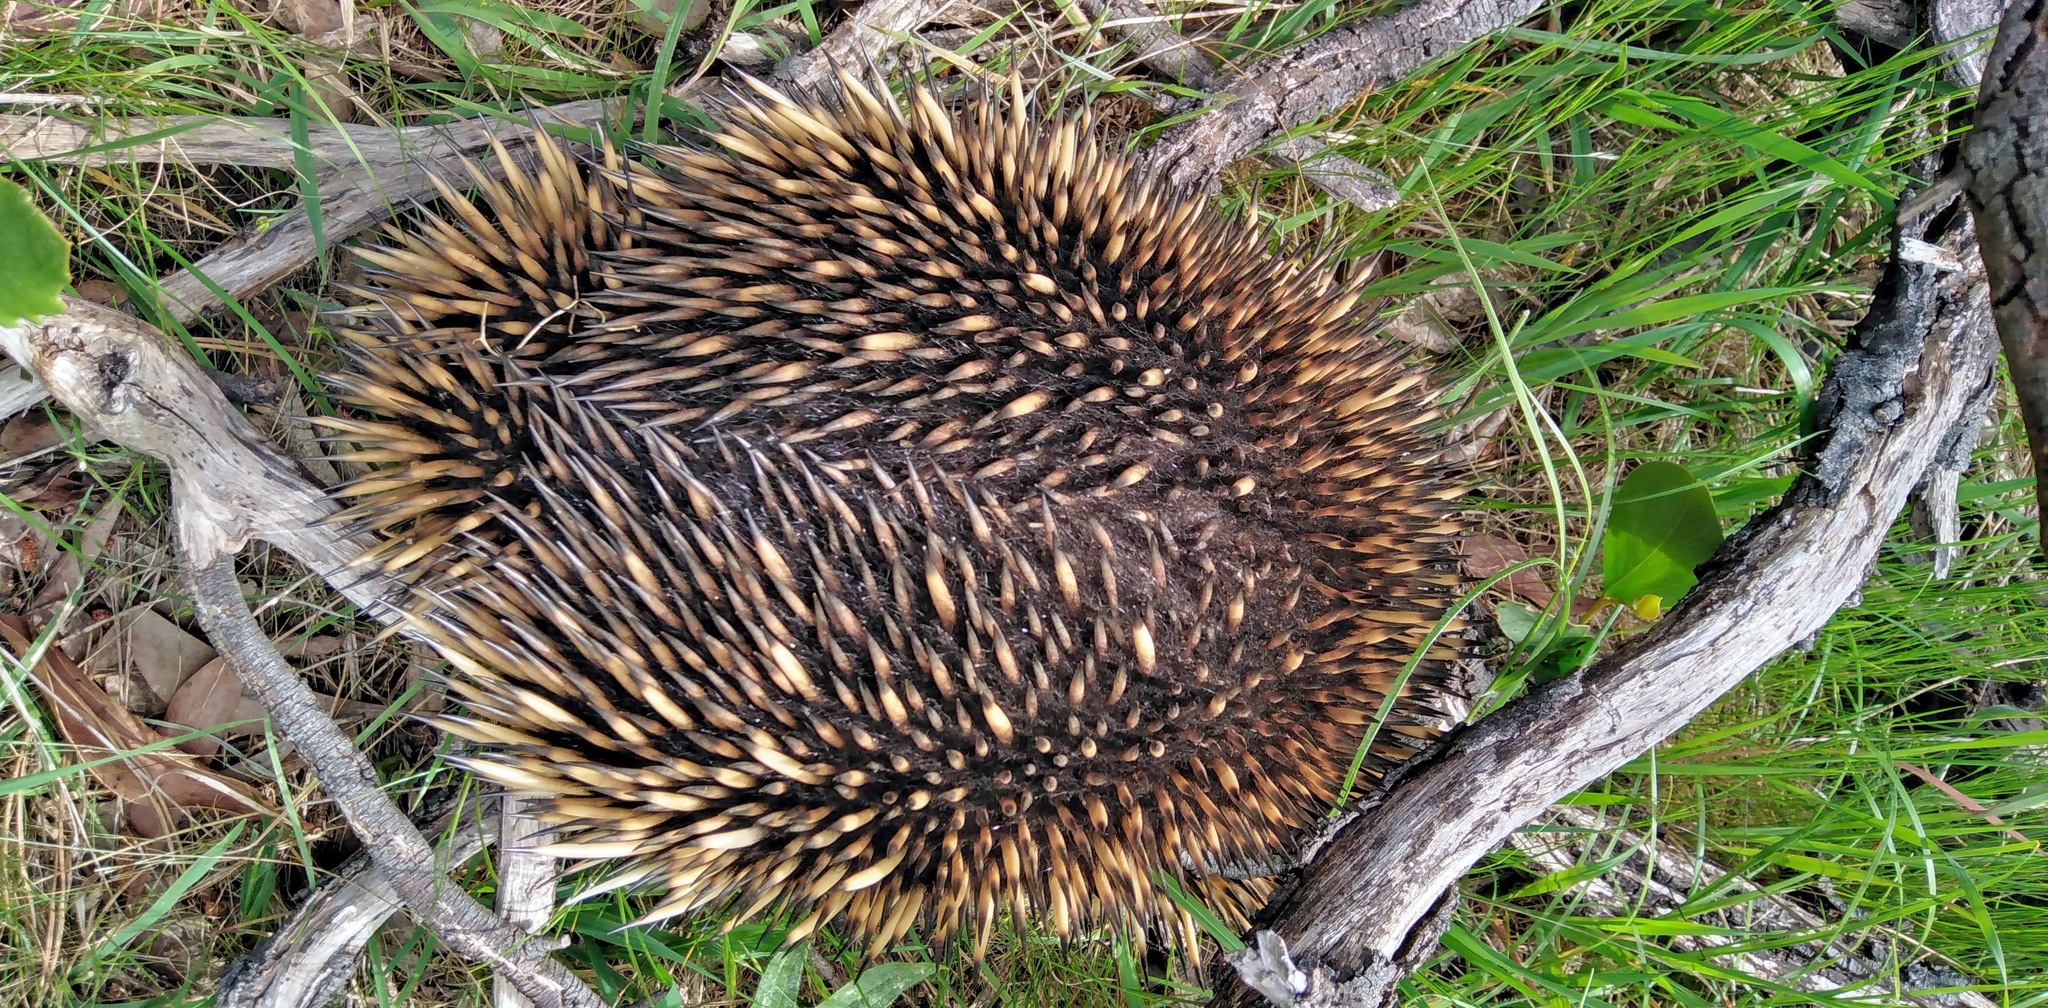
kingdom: Animalia
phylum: Chordata
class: Mammalia
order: Monotremata
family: Tachyglossidae
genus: Tachyglossus
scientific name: Tachyglossus aculeatus
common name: Short-beaked echidna
